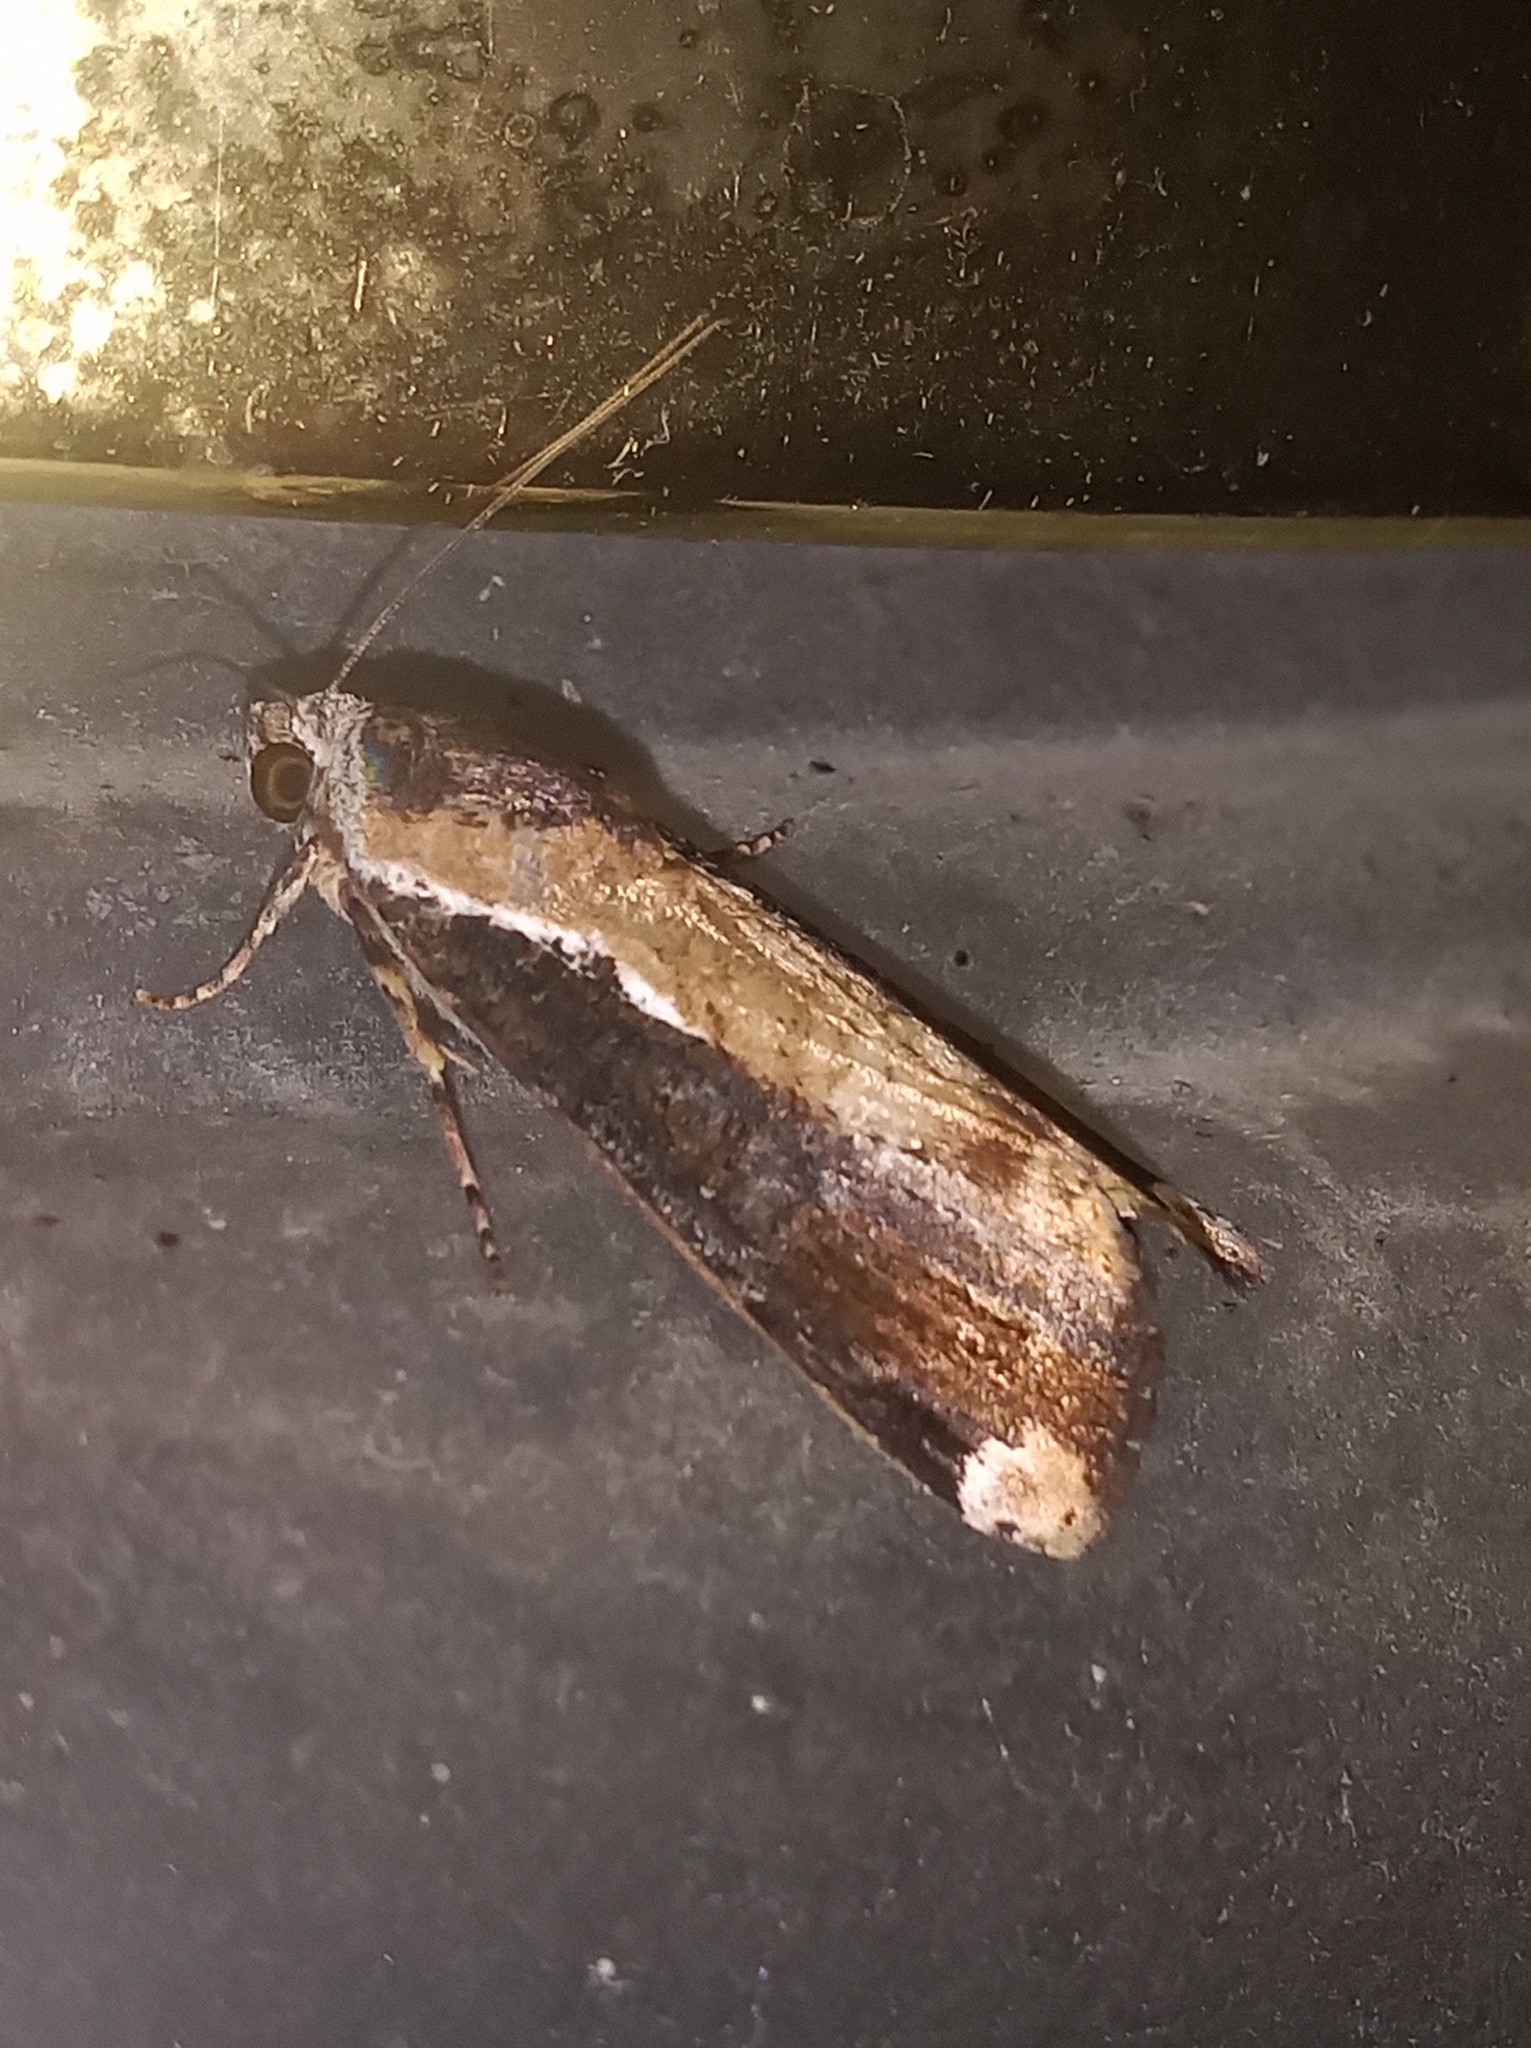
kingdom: Animalia
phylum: Arthropoda
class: Insecta
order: Lepidoptera
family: Noctuidae
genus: Magusa
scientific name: Magusa divaricata
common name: Orb narrow-winged moth
